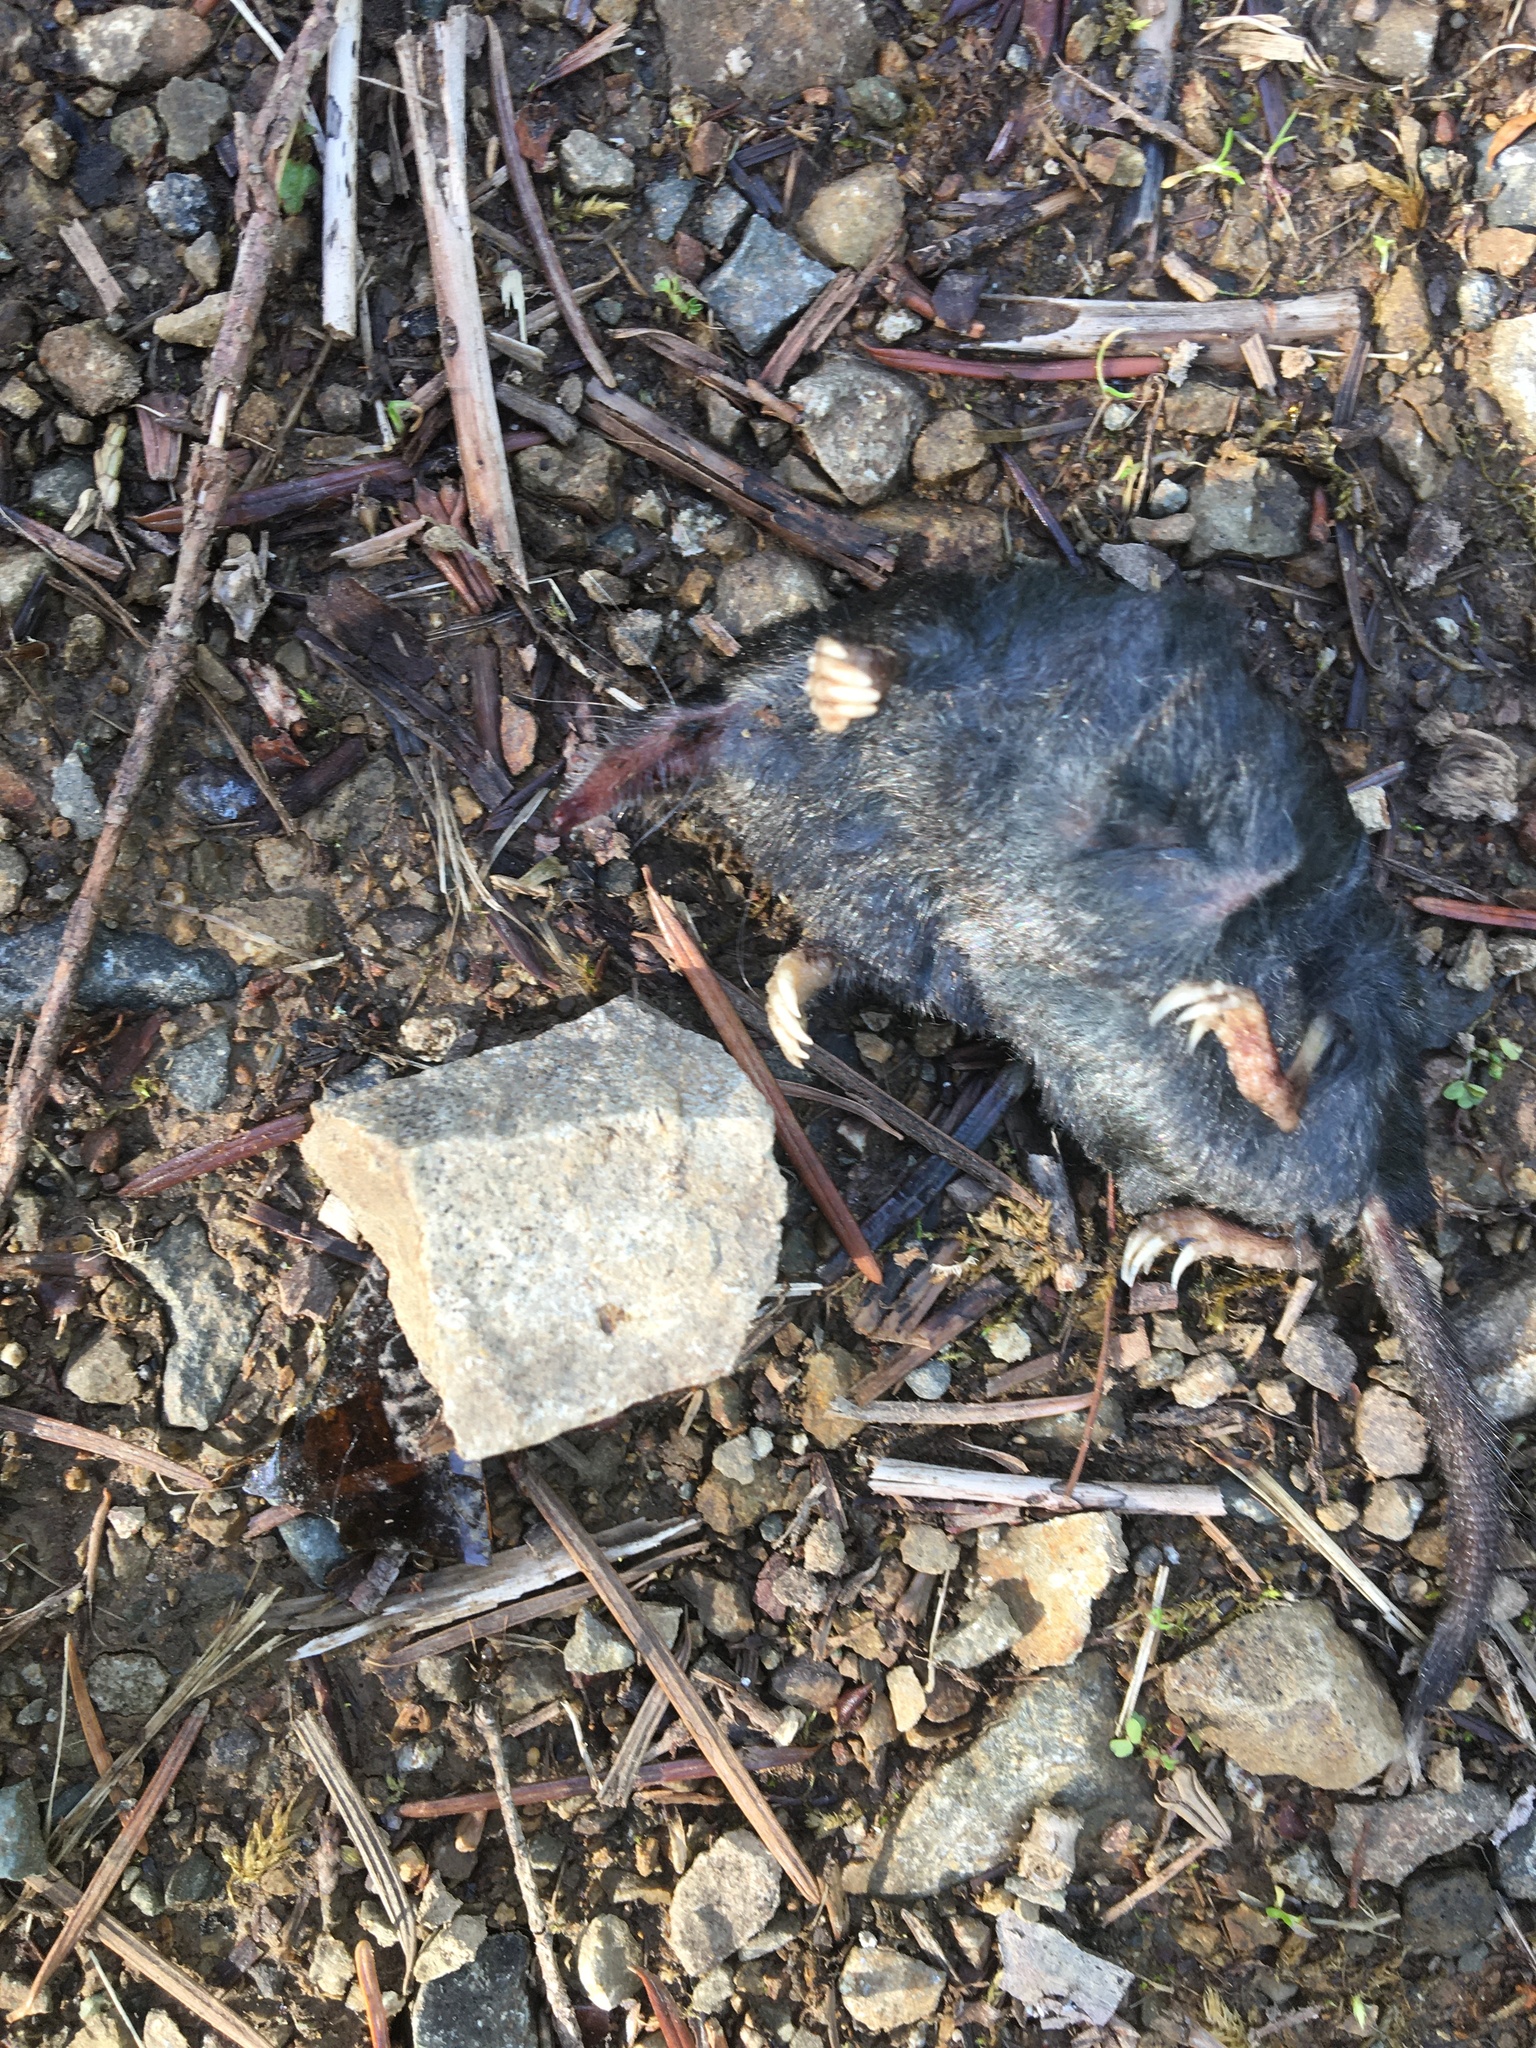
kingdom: Animalia
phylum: Chordata
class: Mammalia
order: Soricomorpha
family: Talpidae
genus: Neurotrichus
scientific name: Neurotrichus gibbsii
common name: American shrew mole
